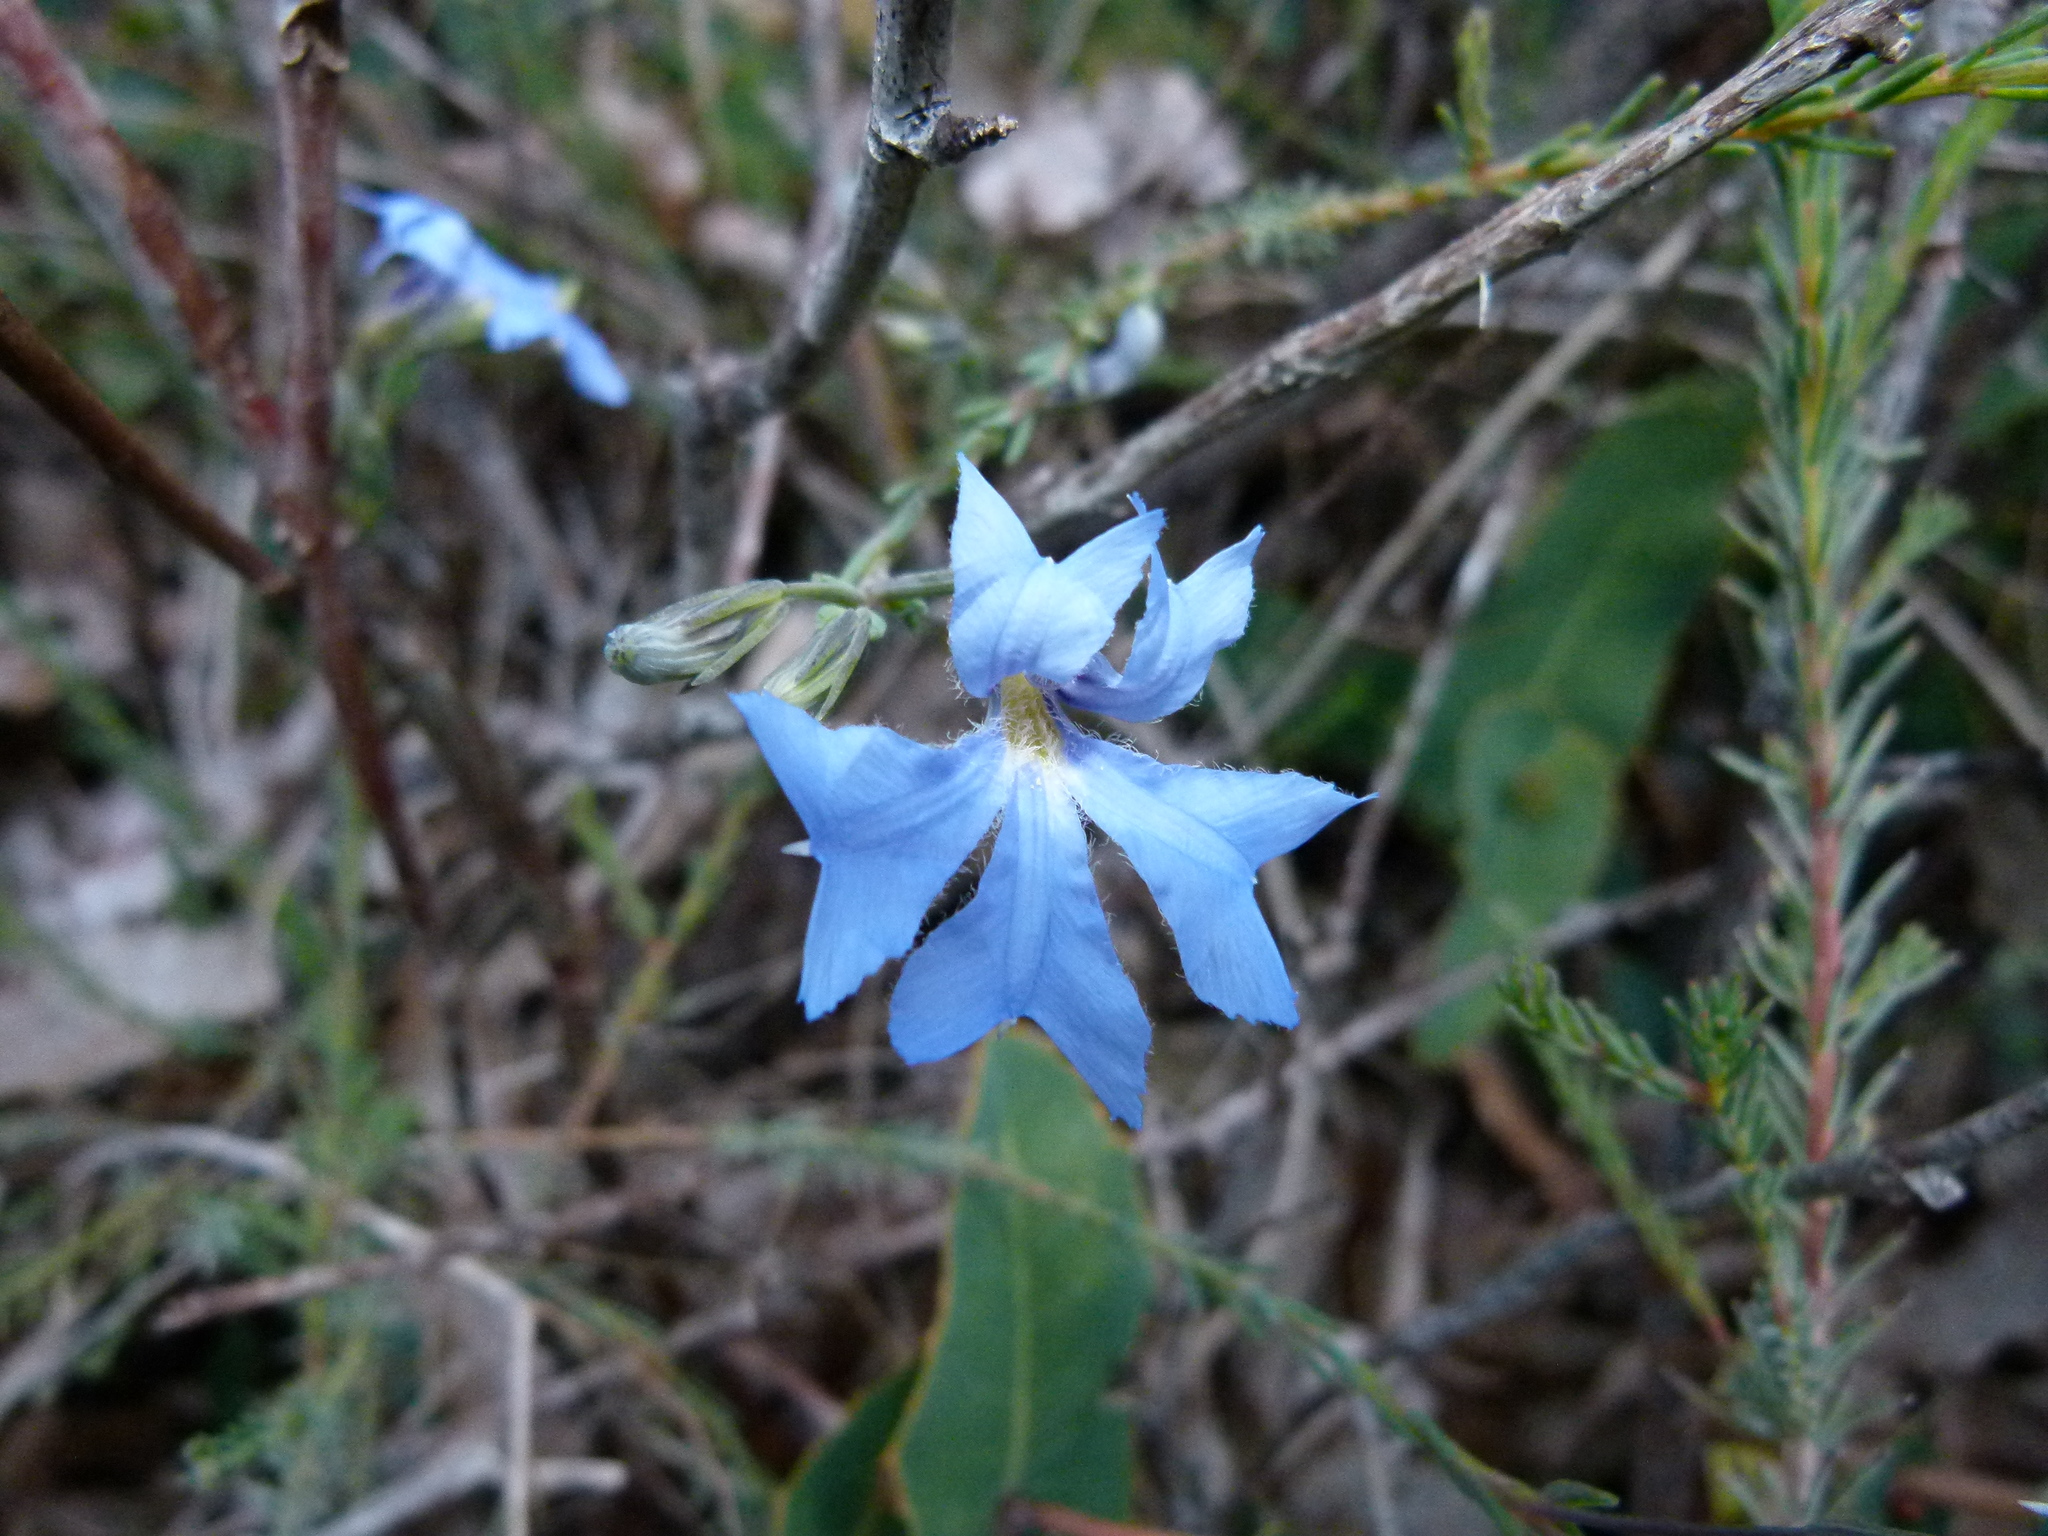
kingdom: Plantae
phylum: Tracheophyta
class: Magnoliopsida
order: Asterales
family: Goodeniaceae
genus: Lechenaultia
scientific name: Lechenaultia biloba
